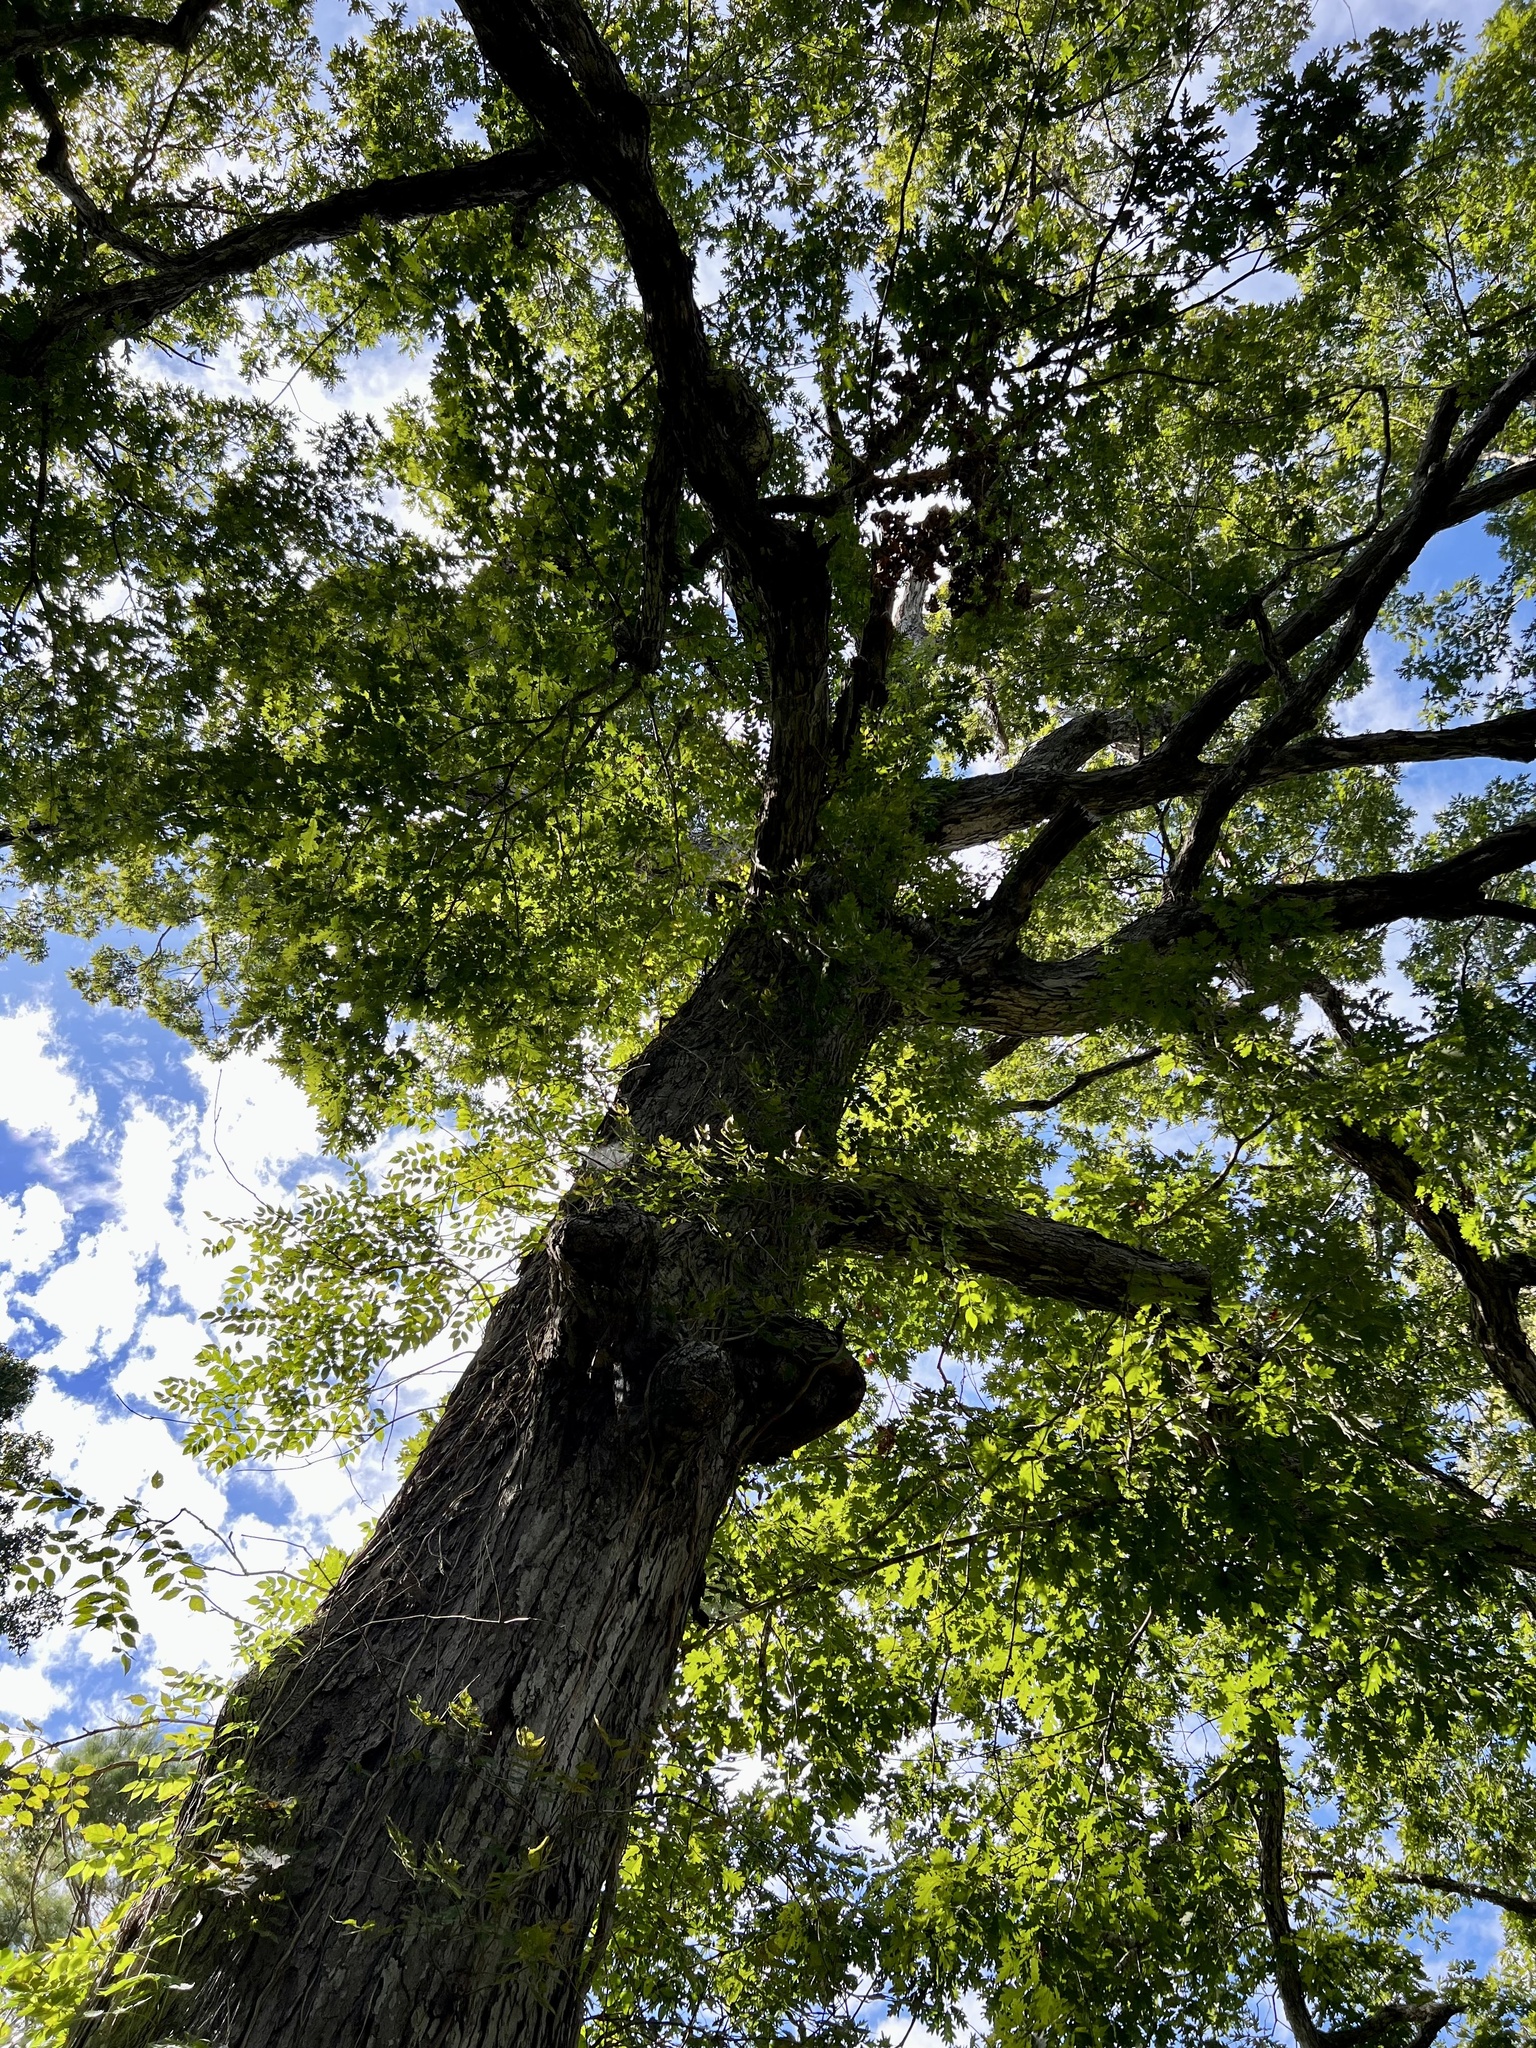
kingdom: Plantae
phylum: Tracheophyta
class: Magnoliopsida
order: Fagales
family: Fagaceae
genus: Quercus
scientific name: Quercus alba
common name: White oak
